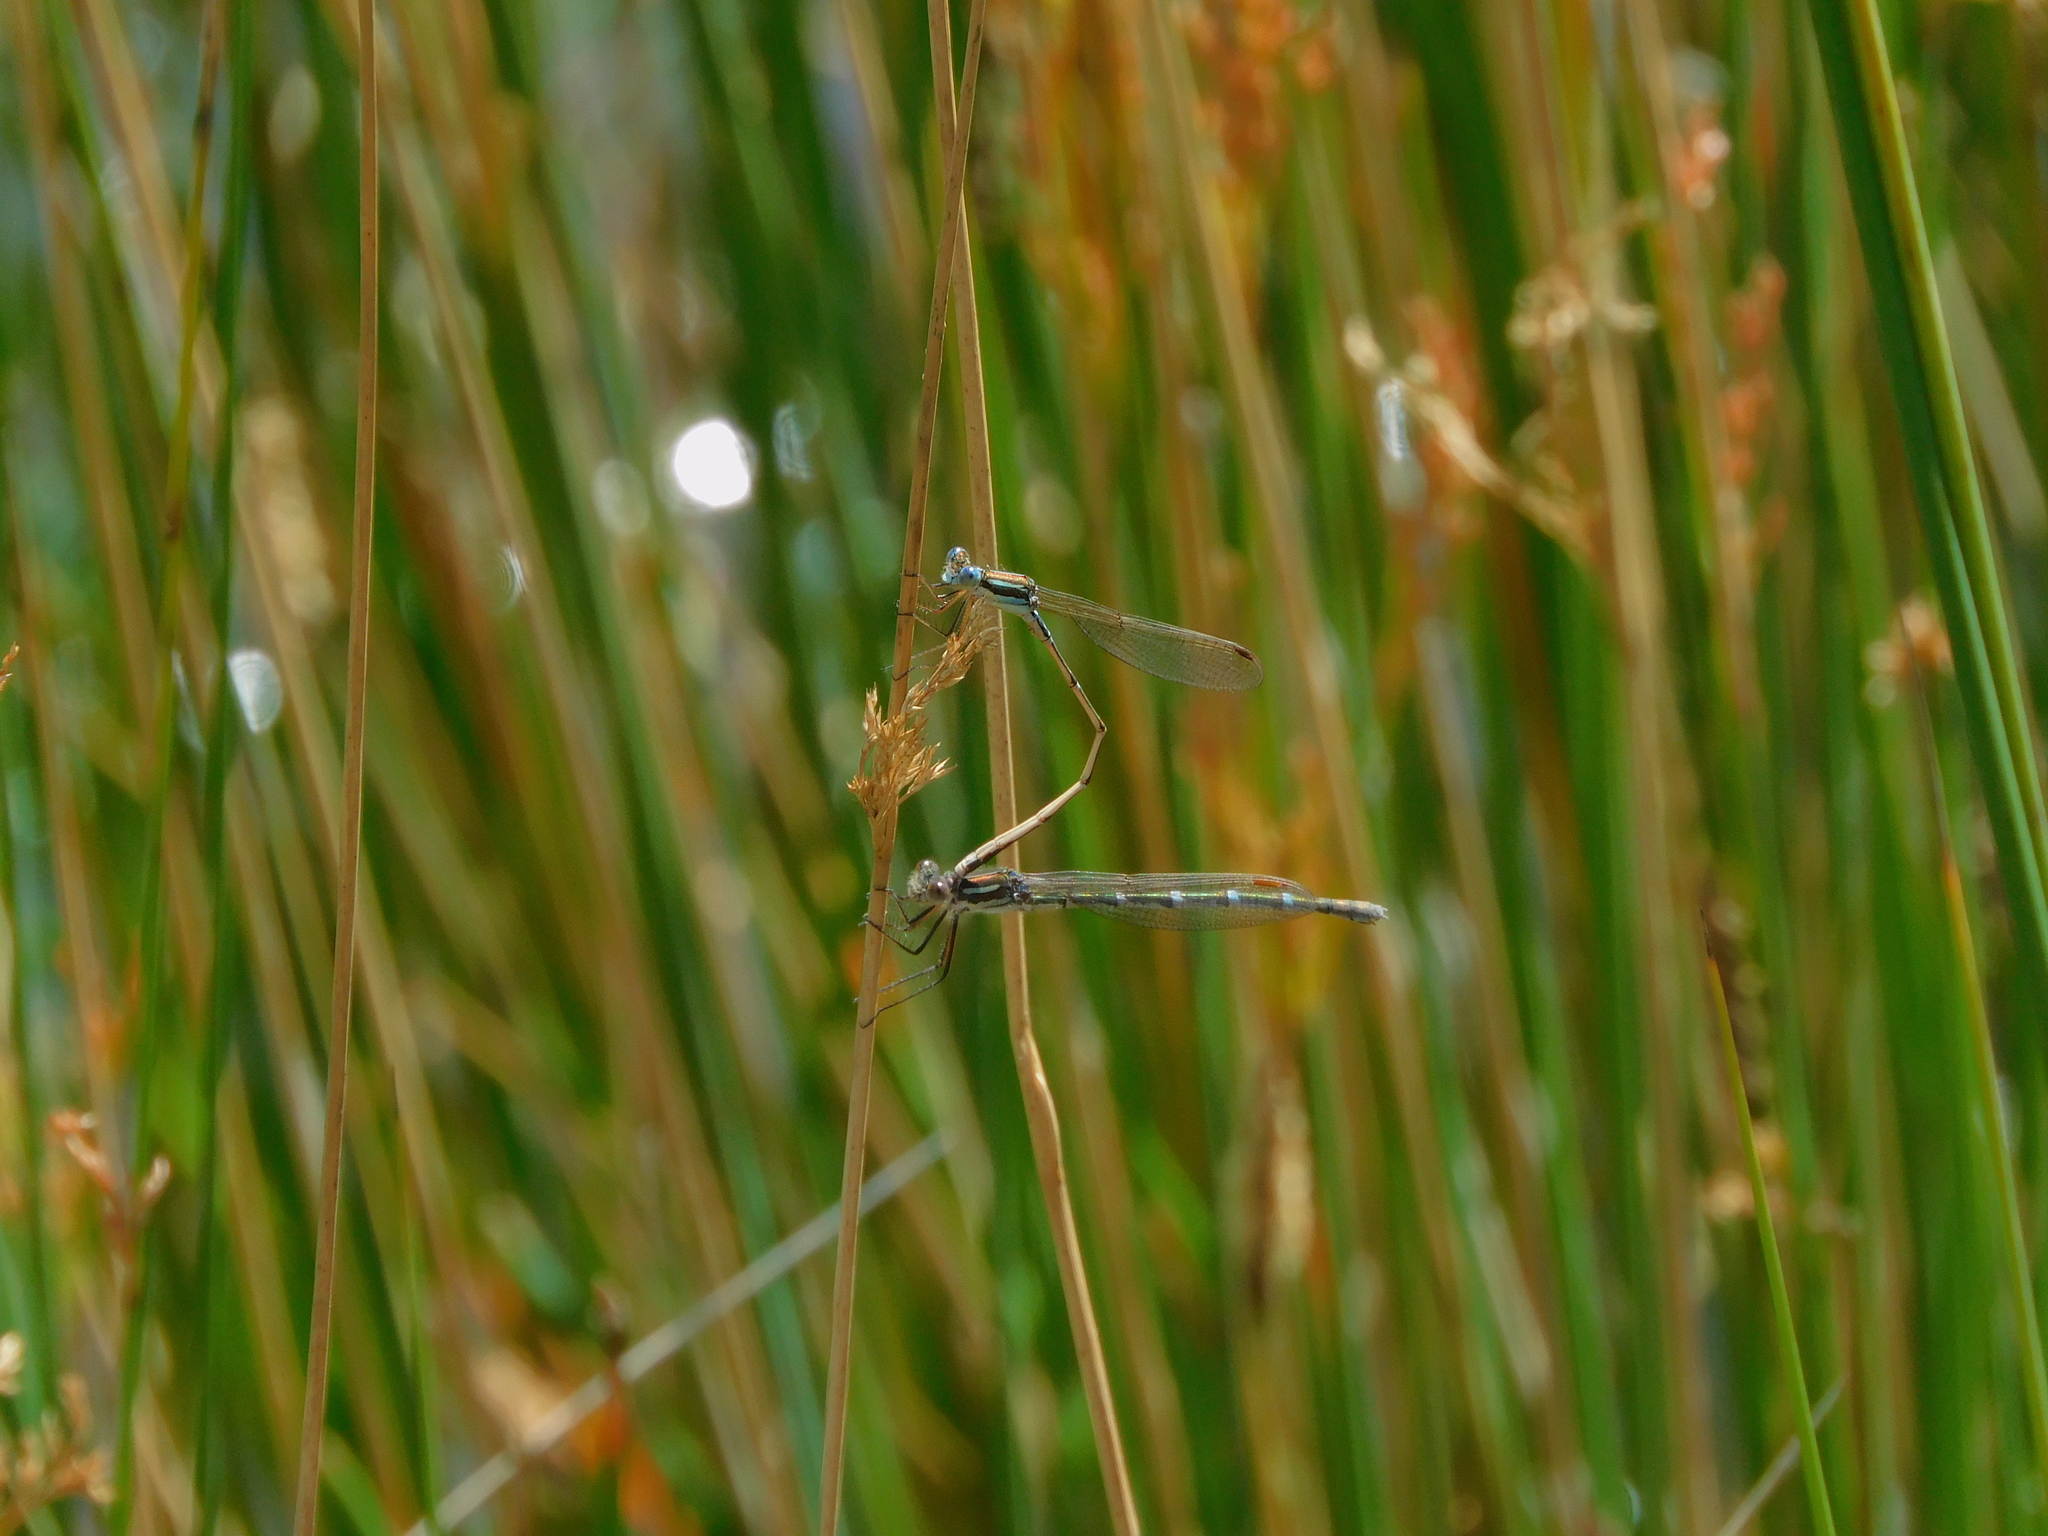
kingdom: Animalia
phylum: Arthropoda
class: Insecta
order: Odonata
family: Lestidae
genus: Austrolestes
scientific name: Austrolestes annulosus
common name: Blue ringtail
